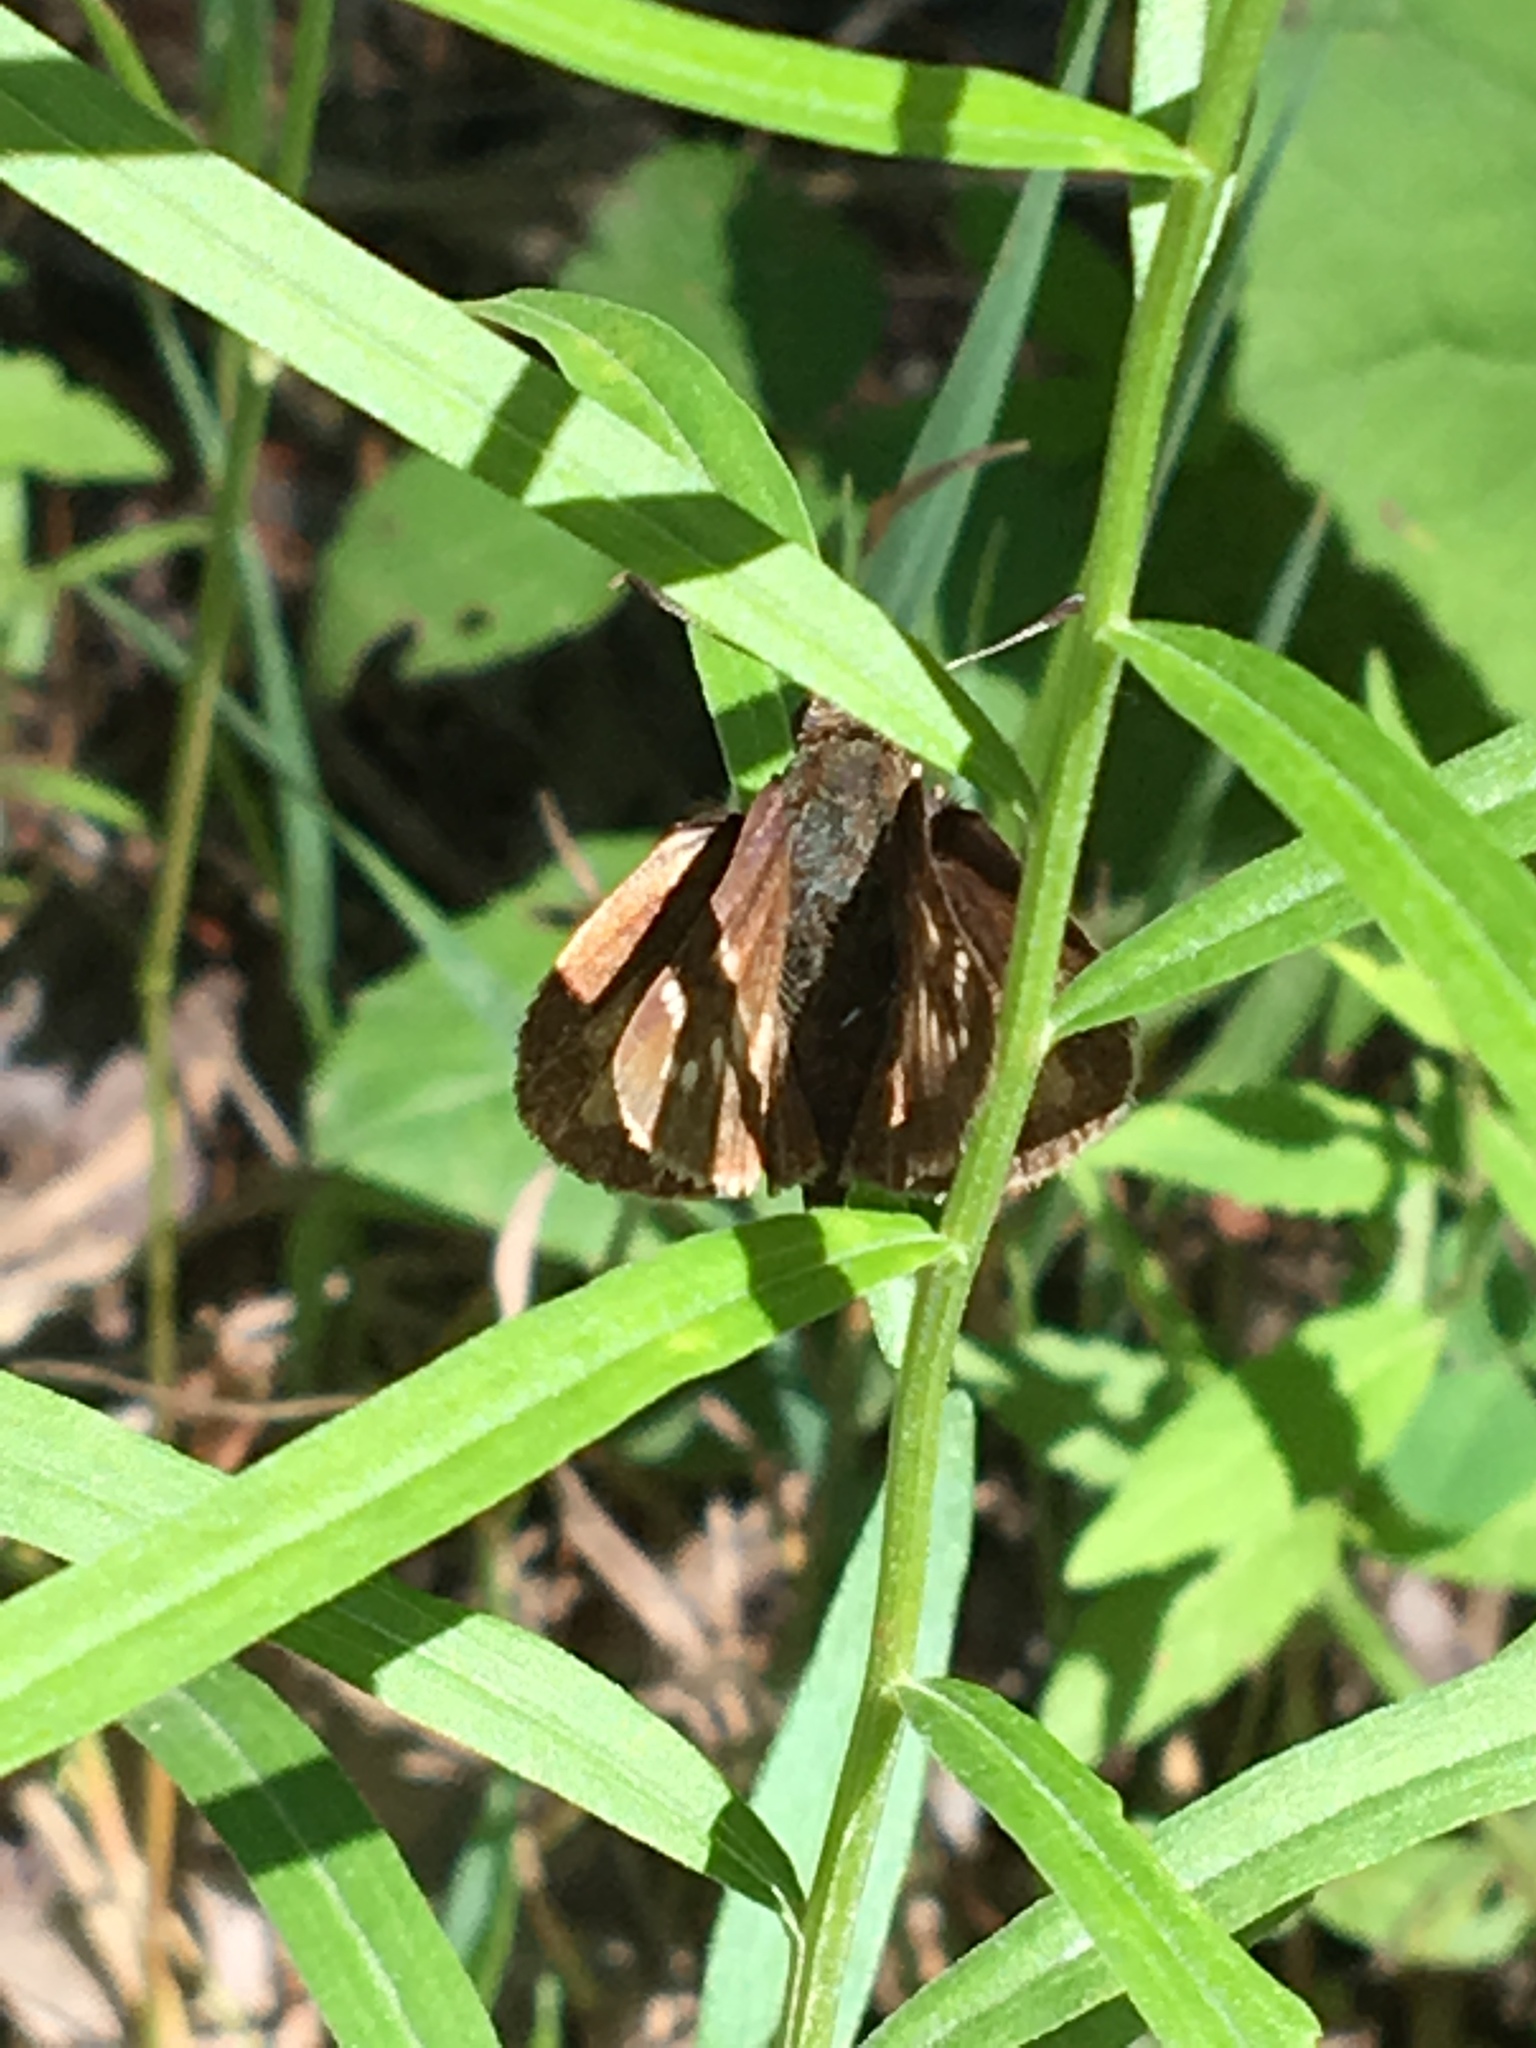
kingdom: Animalia
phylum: Arthropoda
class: Insecta
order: Lepidoptera
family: Hesperiidae
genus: Lon
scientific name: Lon hobomok
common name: Hobomok skipper
